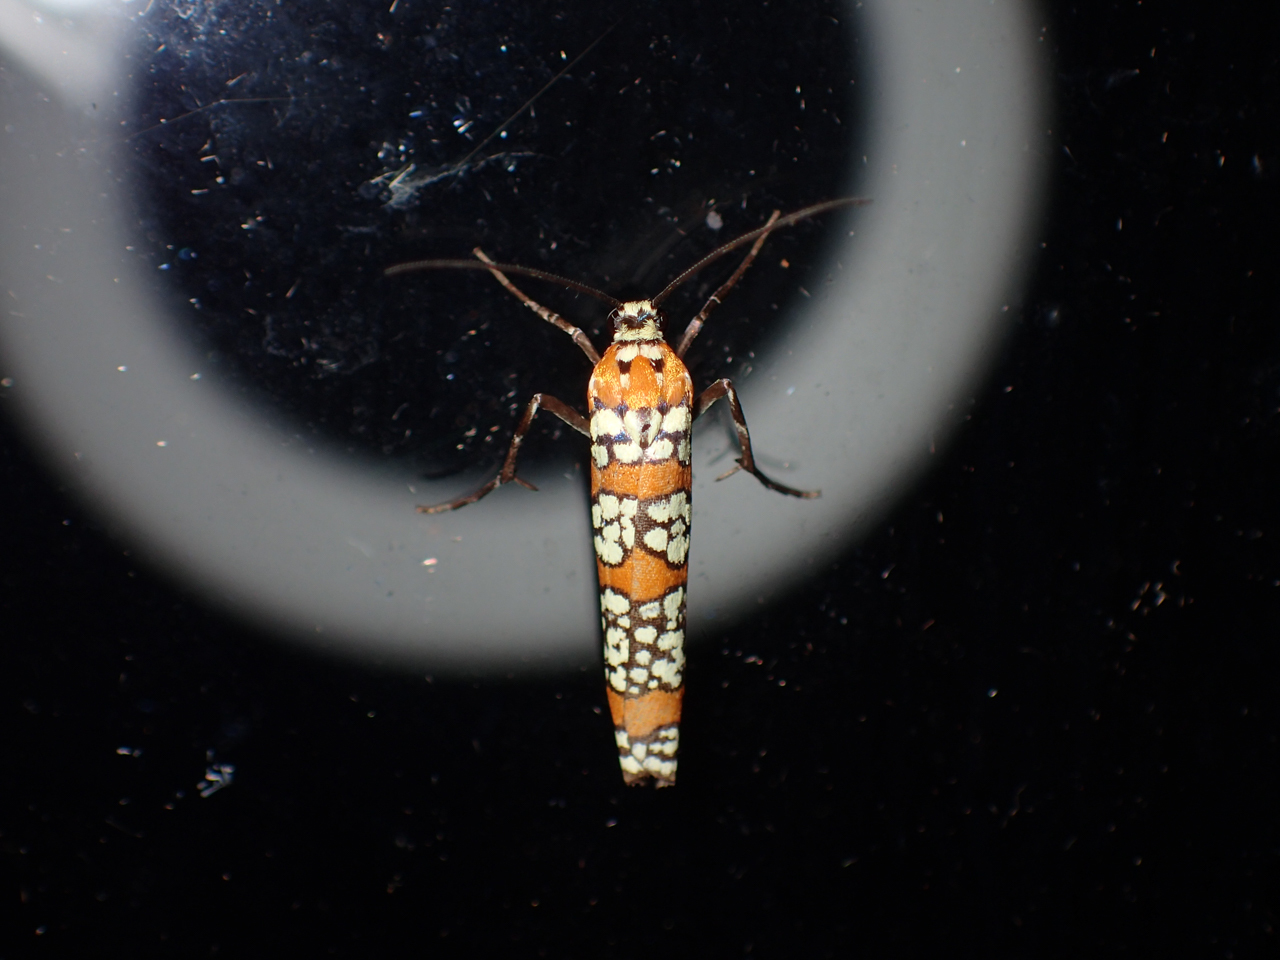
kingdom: Animalia
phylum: Arthropoda
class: Insecta
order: Lepidoptera
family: Attevidae
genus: Atteva
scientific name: Atteva punctella
